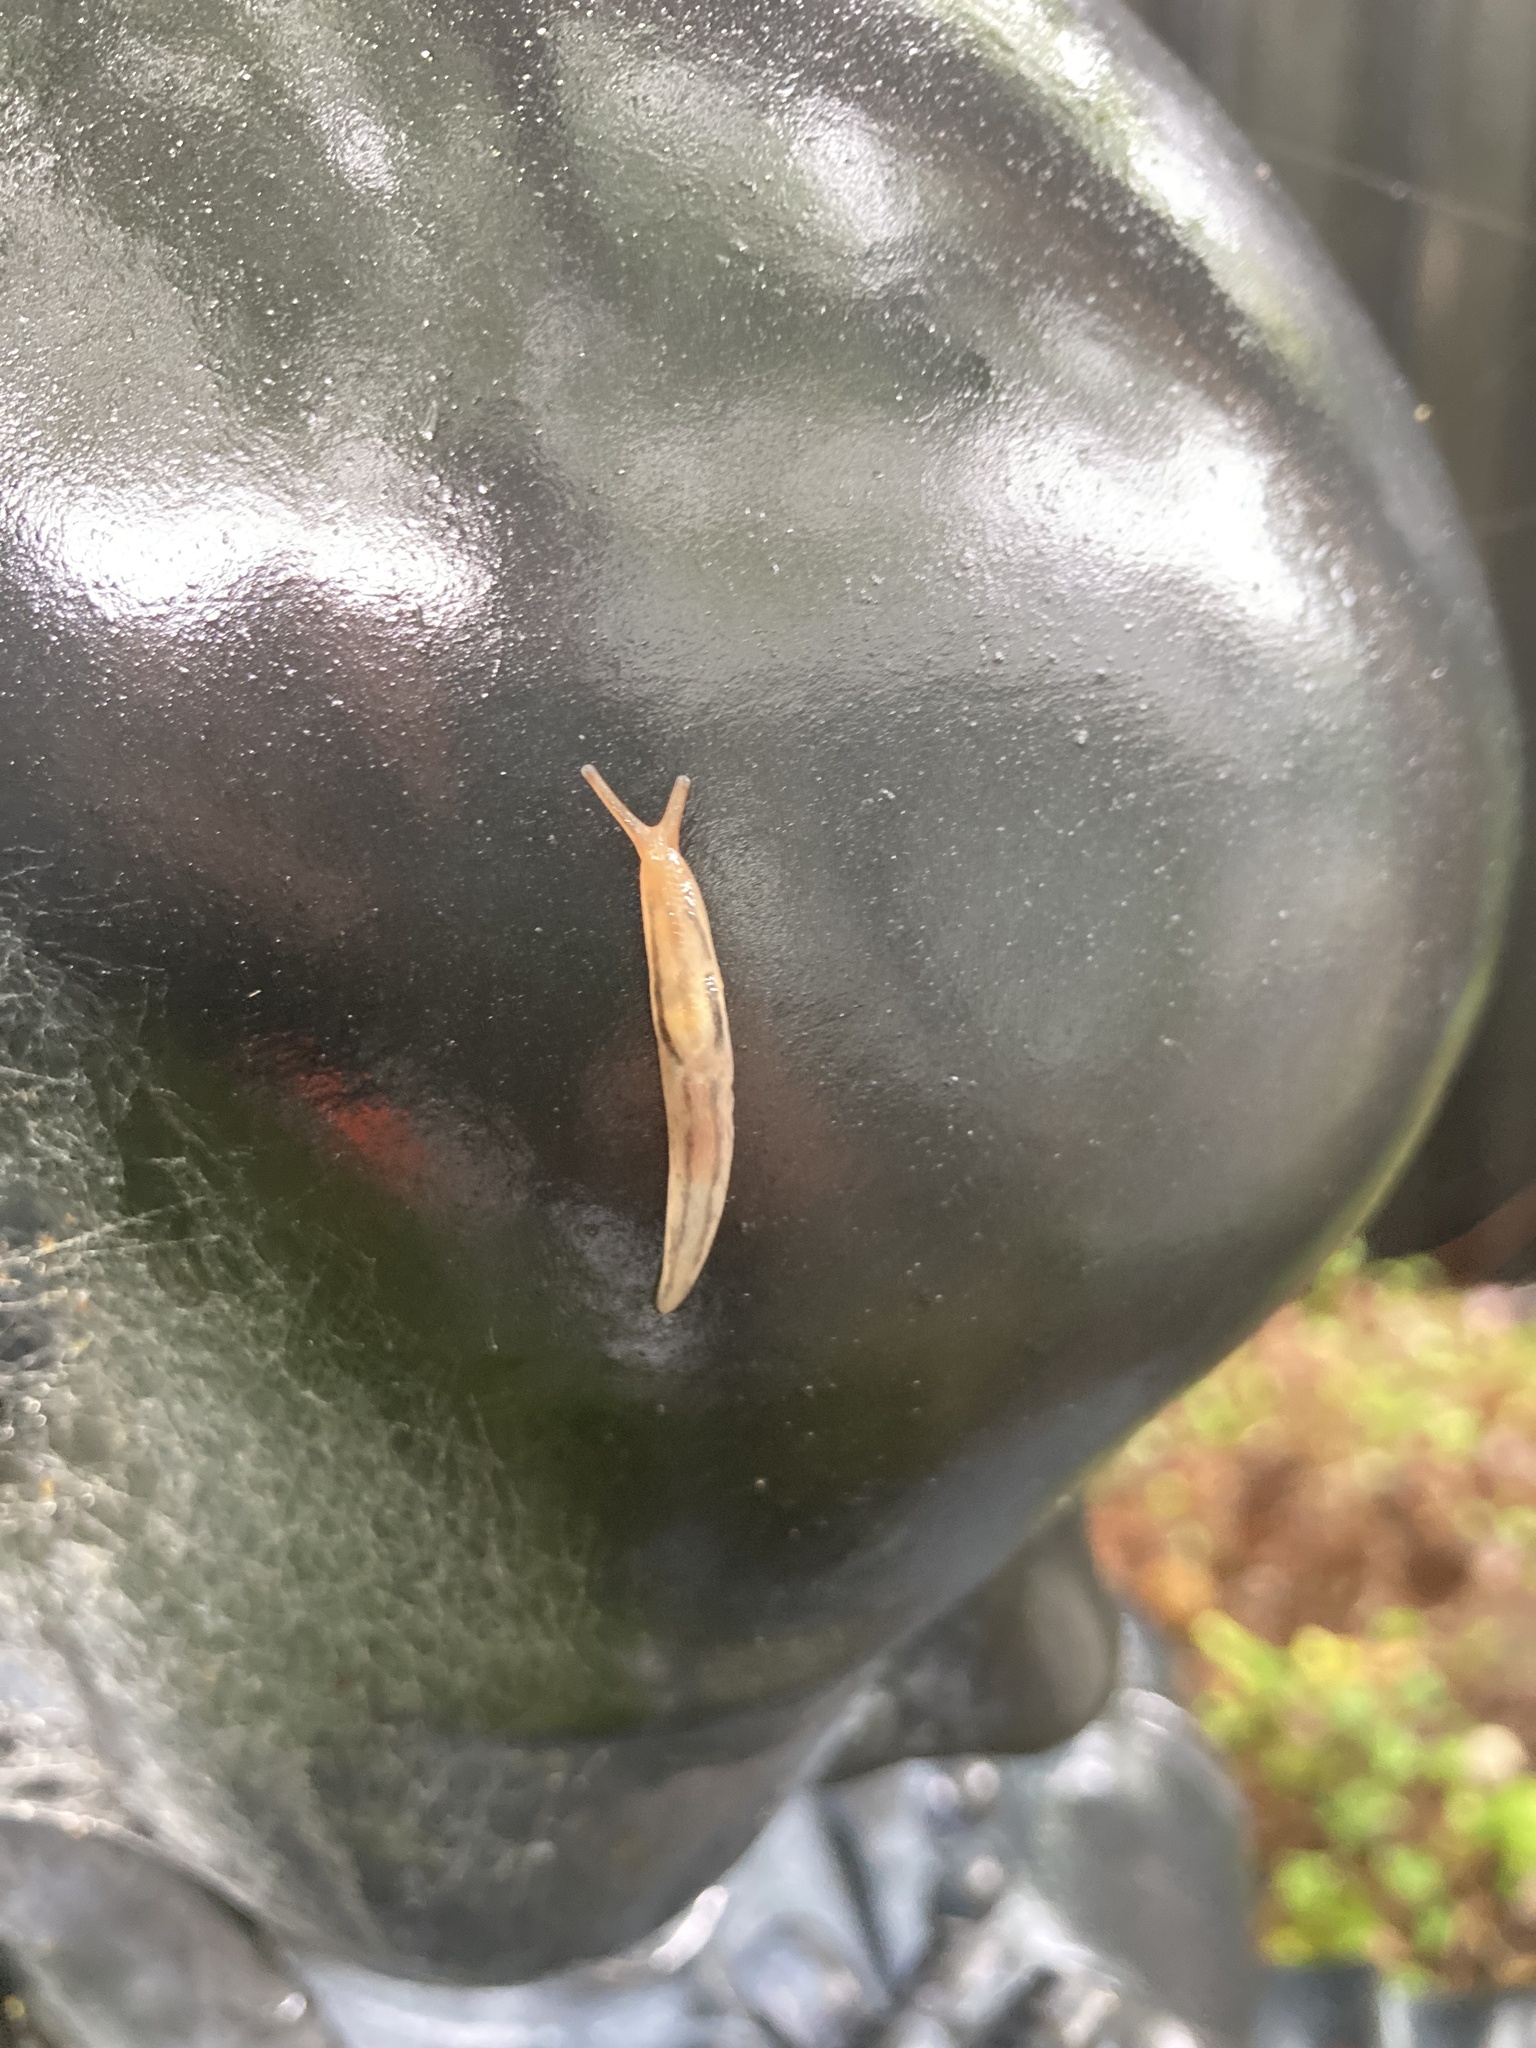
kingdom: Animalia
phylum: Mollusca
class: Gastropoda
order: Stylommatophora
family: Limacidae
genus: Ambigolimax
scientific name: Ambigolimax
